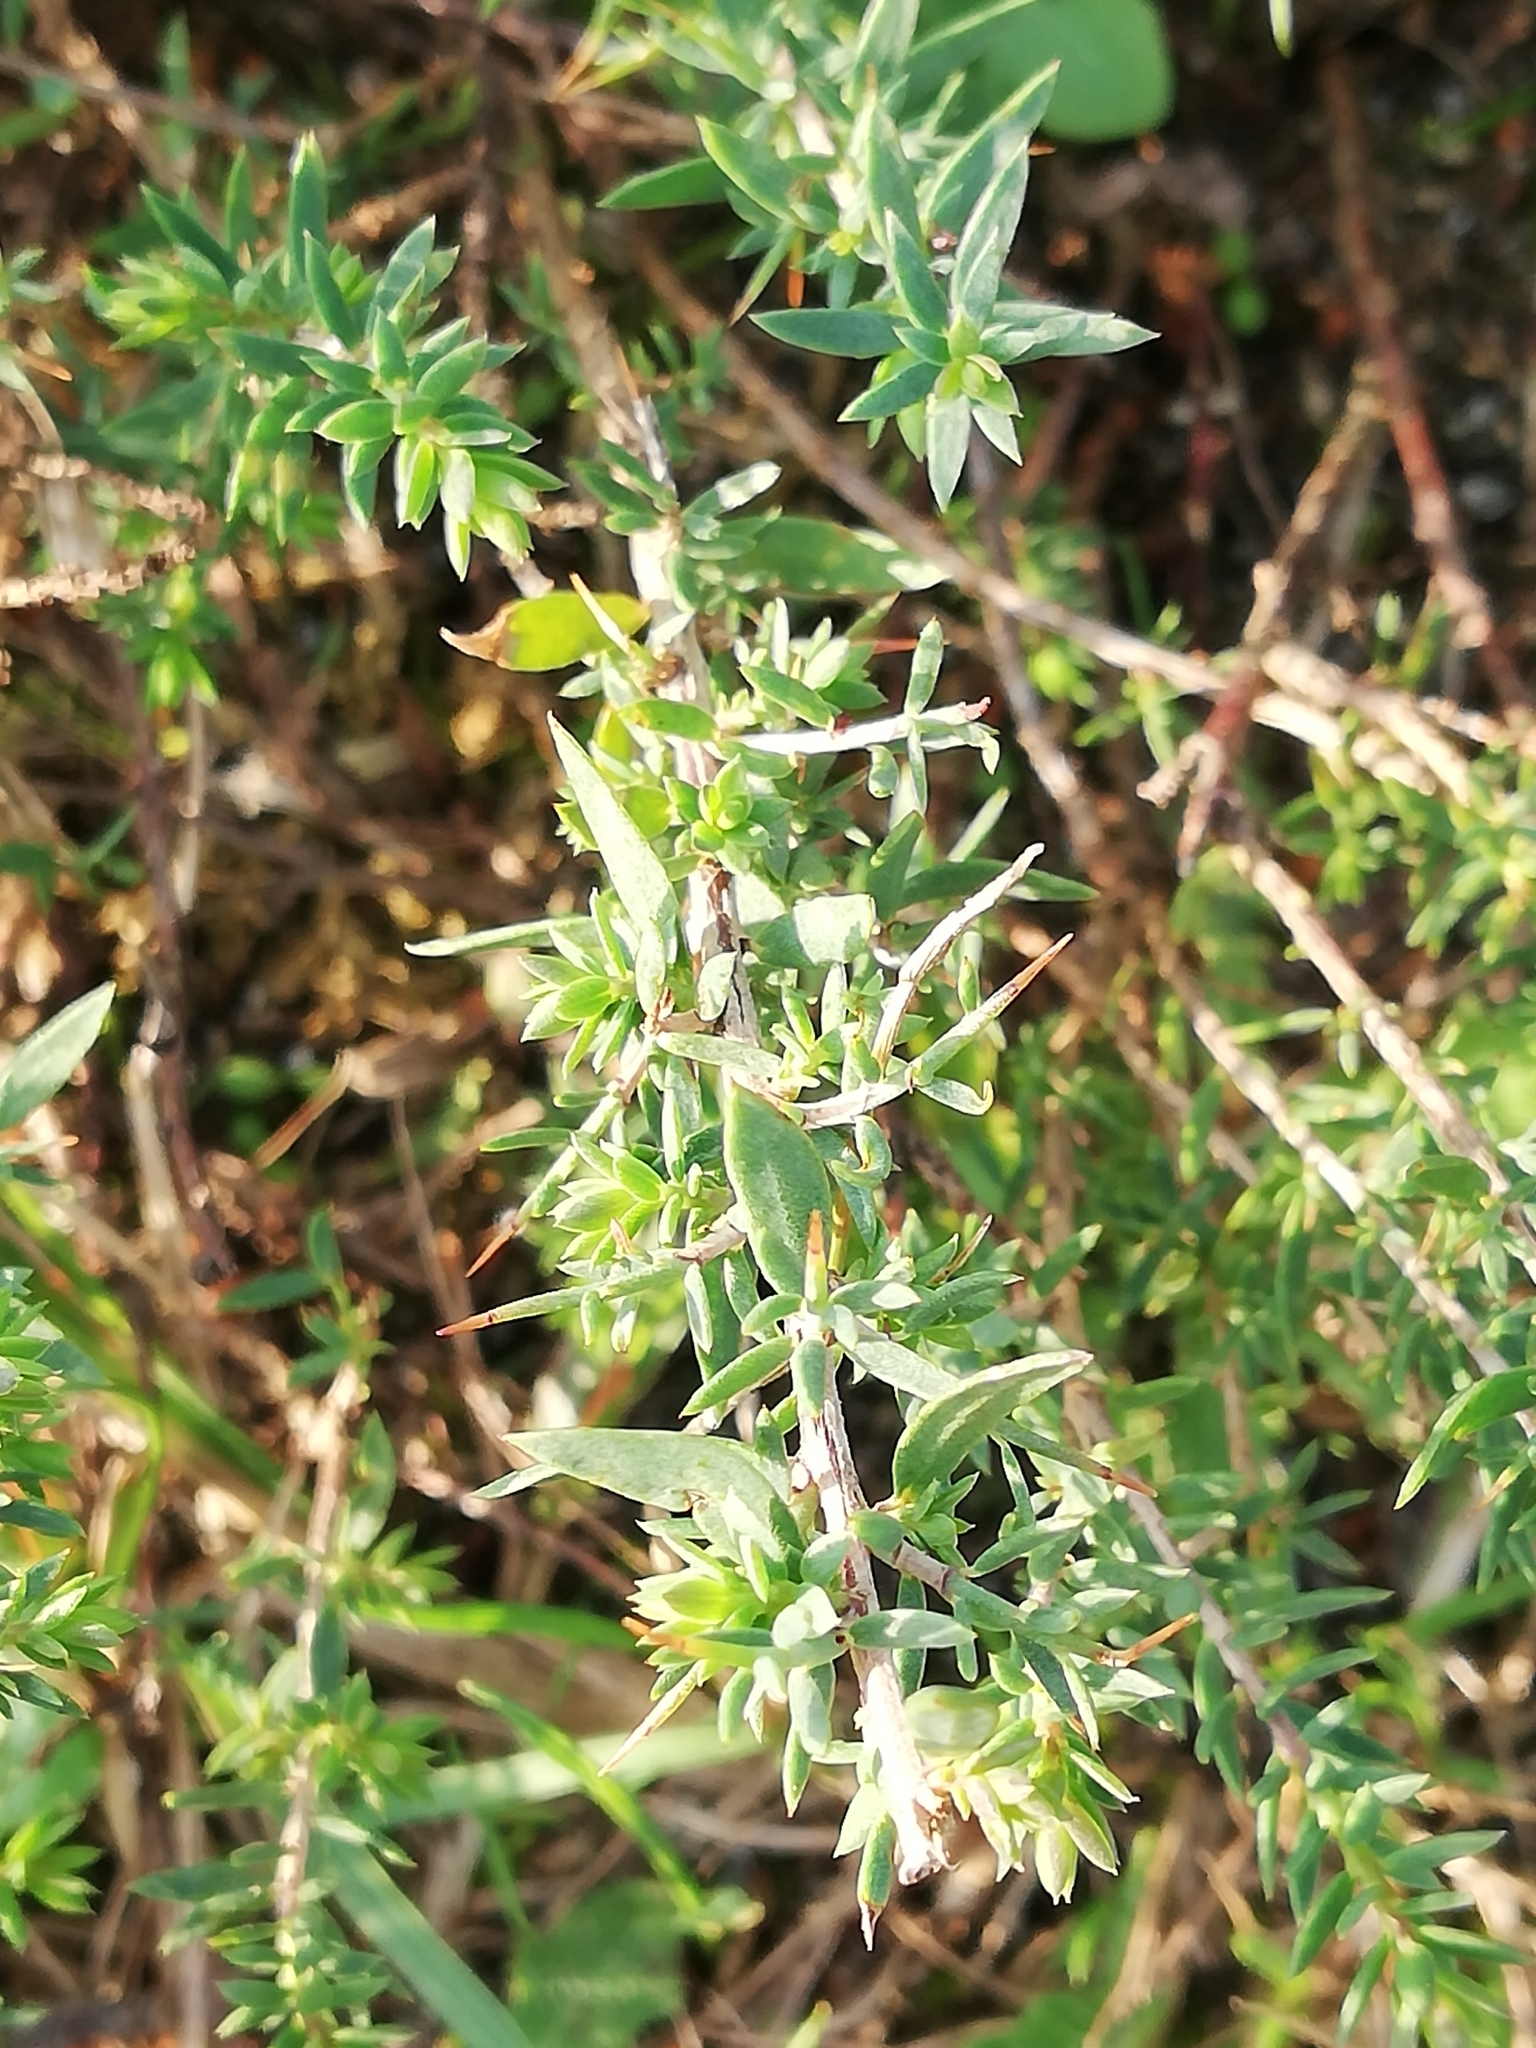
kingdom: Plantae
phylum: Tracheophyta
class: Magnoliopsida
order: Fabales
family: Fabaceae
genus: Genista
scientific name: Genista anglica
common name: Petty whin
